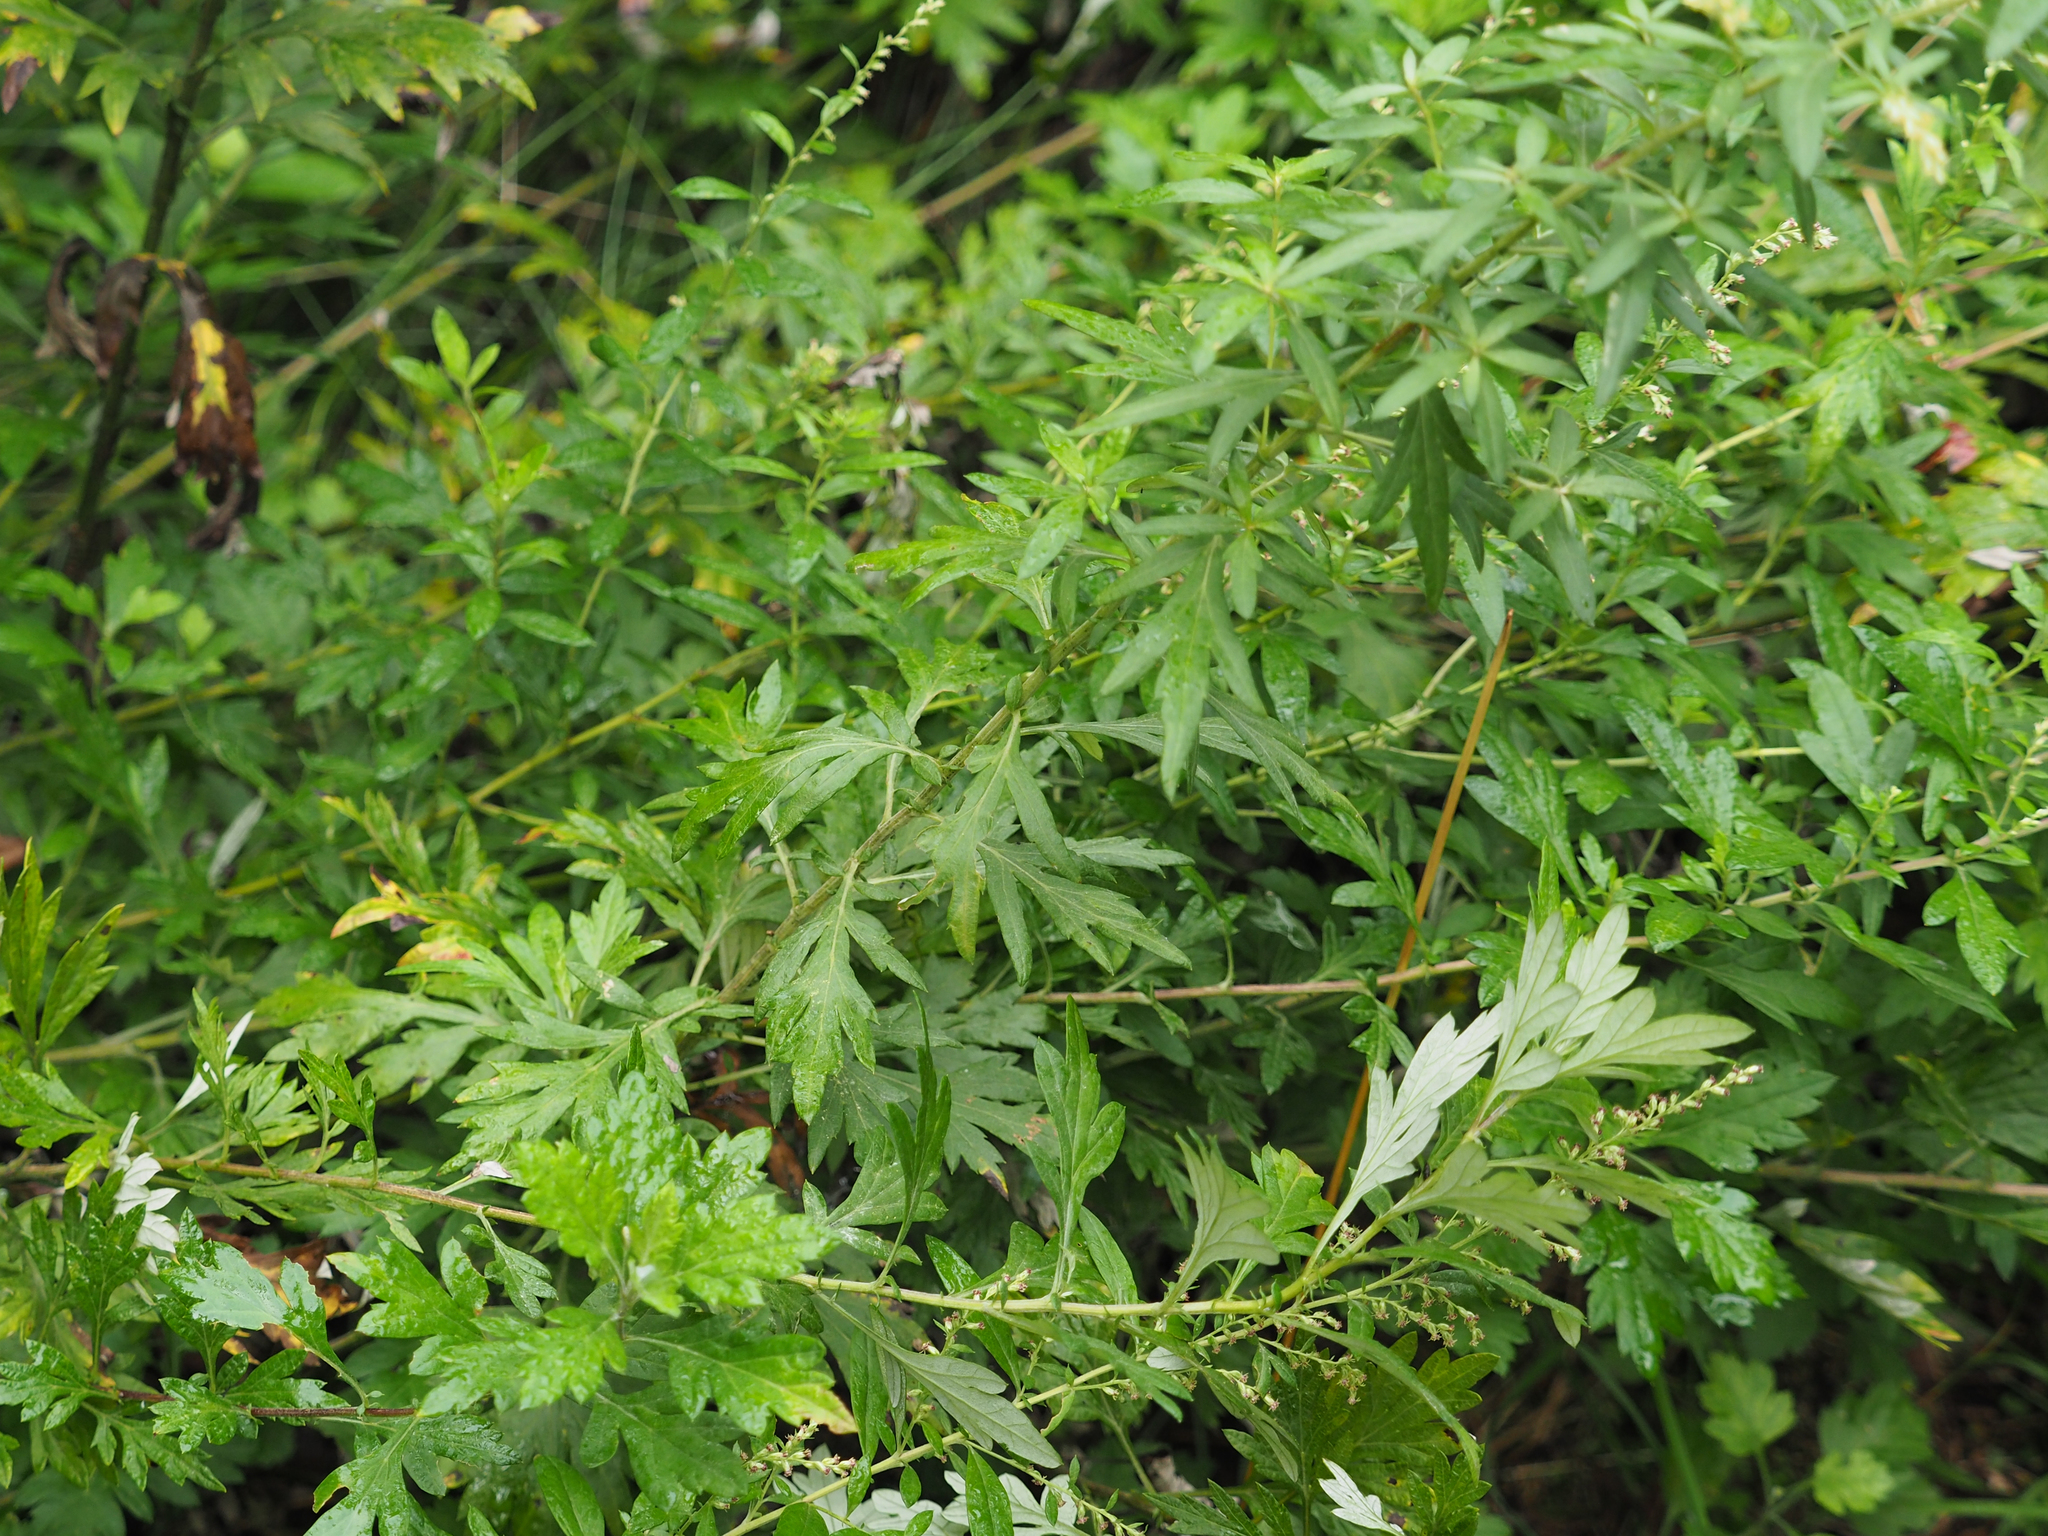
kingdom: Plantae
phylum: Tracheophyta
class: Magnoliopsida
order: Asterales
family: Asteraceae
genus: Artemisia
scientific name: Artemisia vulgaris
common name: Mugwort
